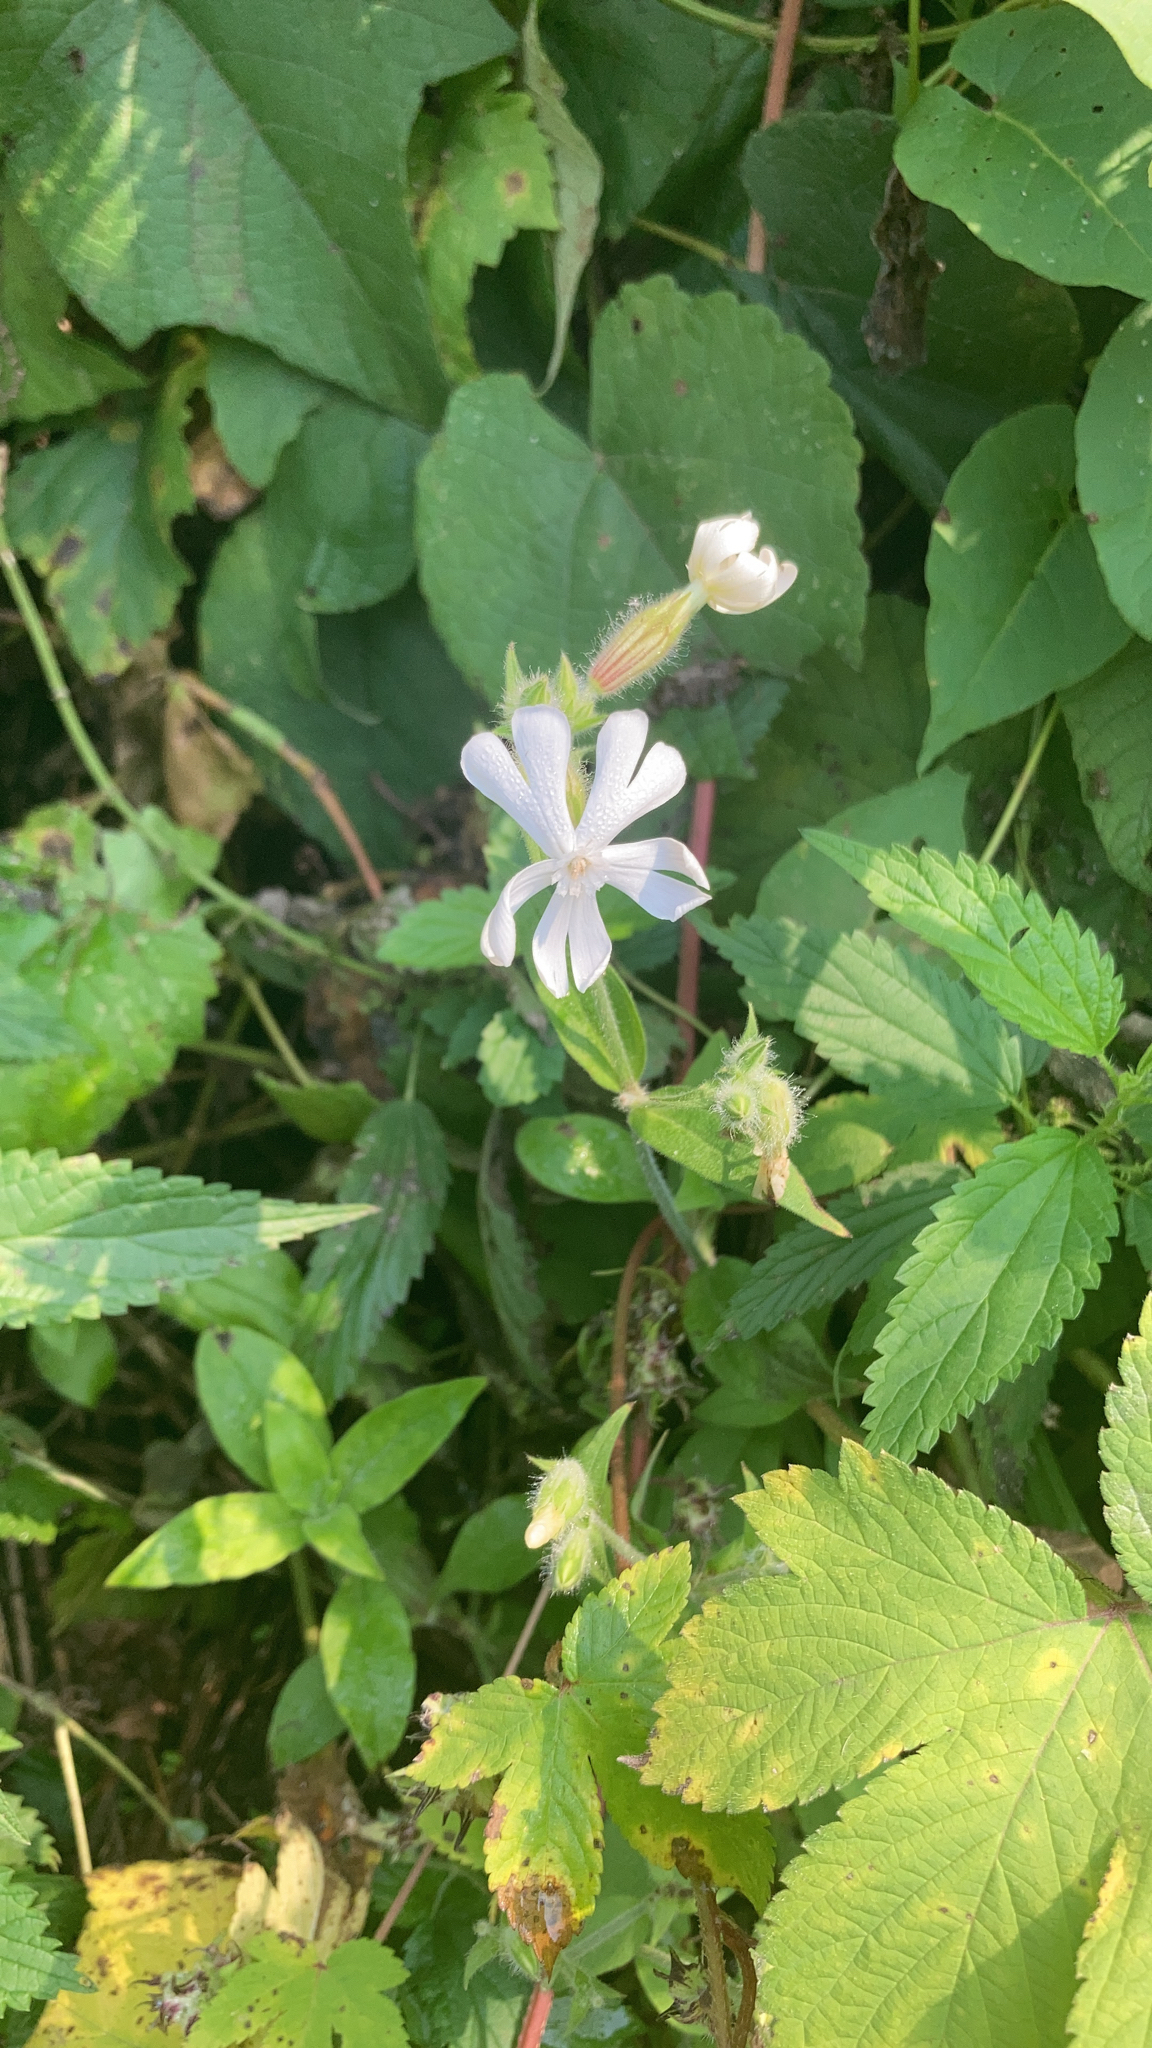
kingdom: Plantae
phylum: Tracheophyta
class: Magnoliopsida
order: Caryophyllales
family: Caryophyllaceae
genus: Silene
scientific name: Silene latifolia
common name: White campion
